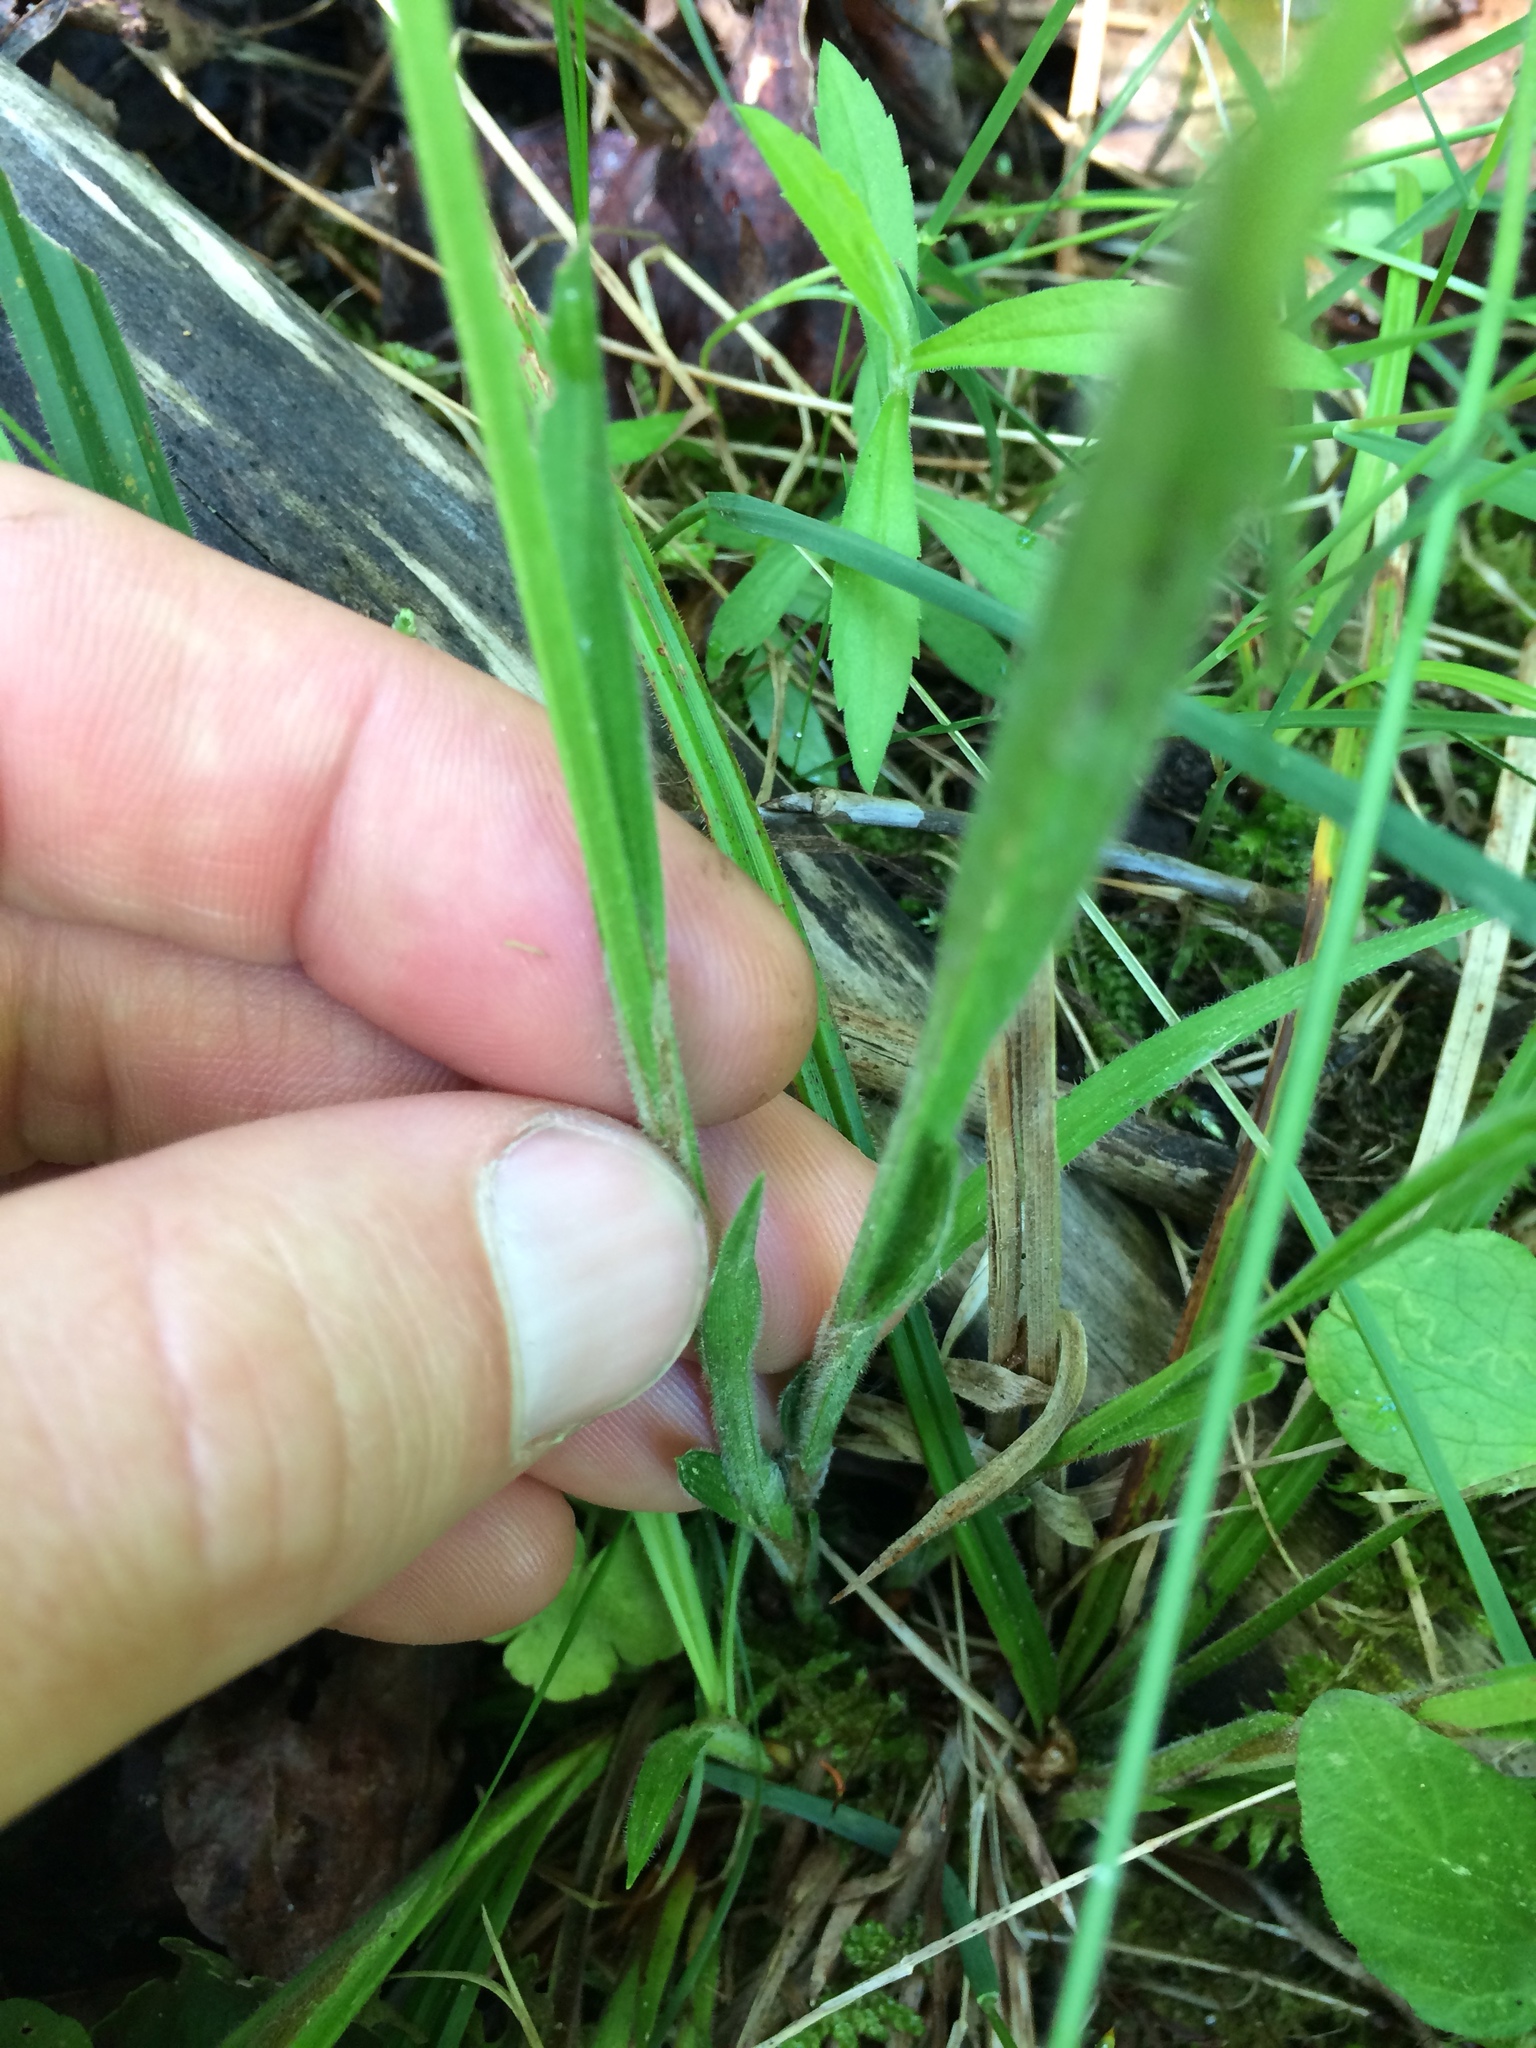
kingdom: Plantae
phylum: Tracheophyta
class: Liliopsida
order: Poales
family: Cyperaceae
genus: Carex
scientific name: Carex castanea
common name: Chestnut sedge
